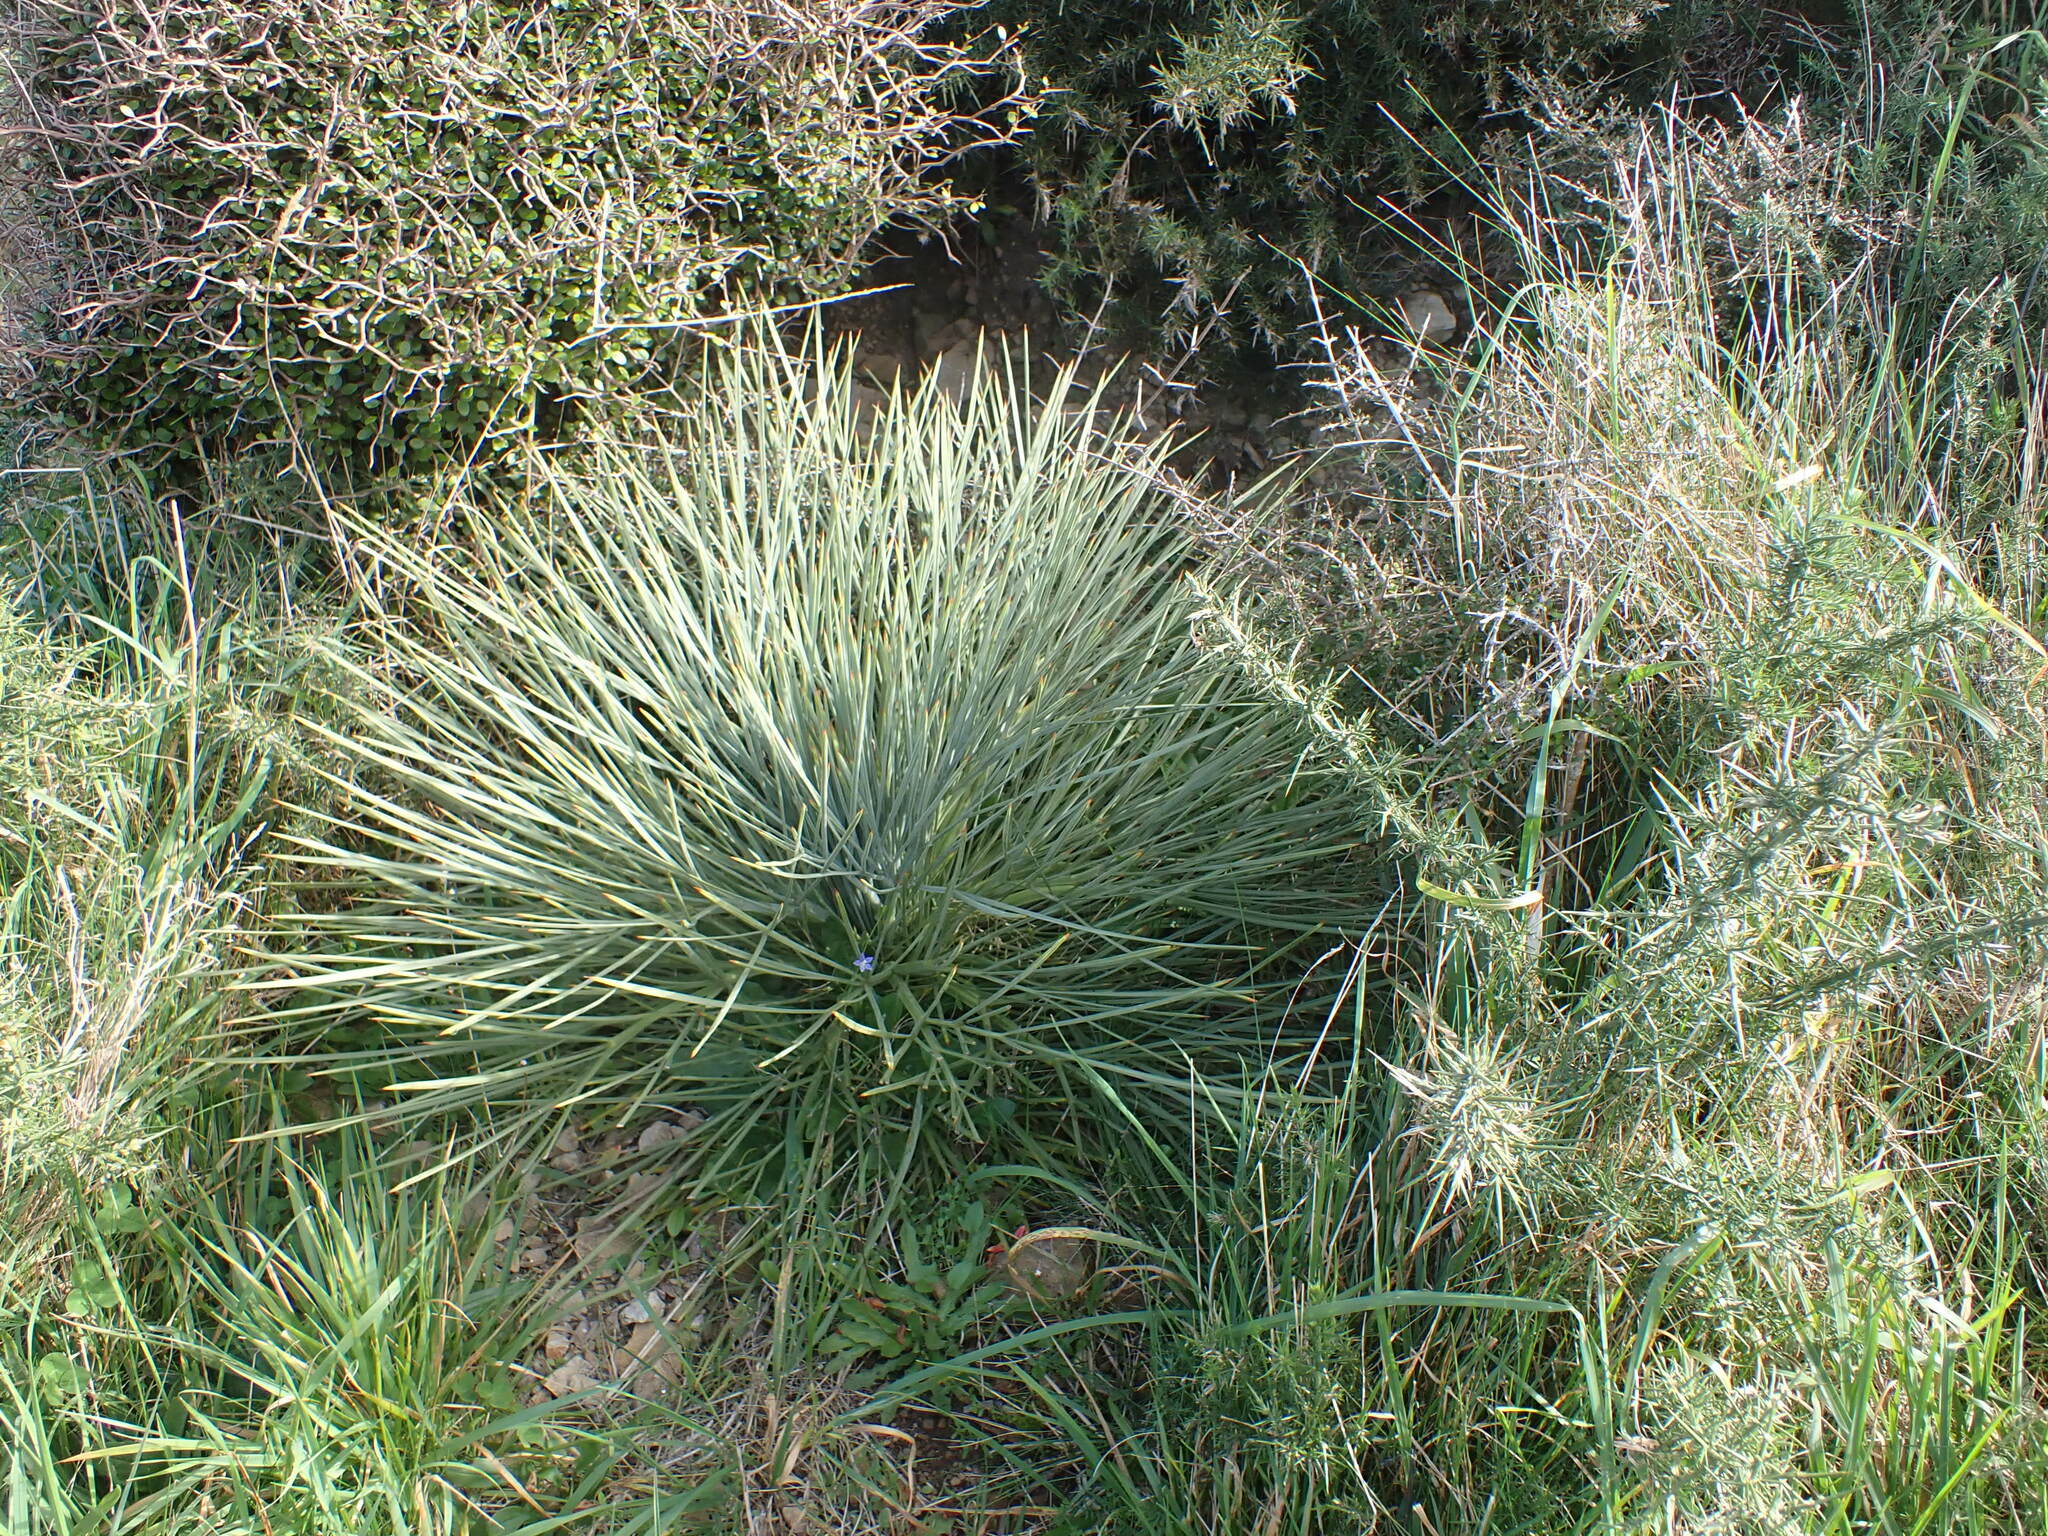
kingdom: Plantae
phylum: Tracheophyta
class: Magnoliopsida
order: Apiales
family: Apiaceae
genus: Aciphylla
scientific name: Aciphylla squarrosa
